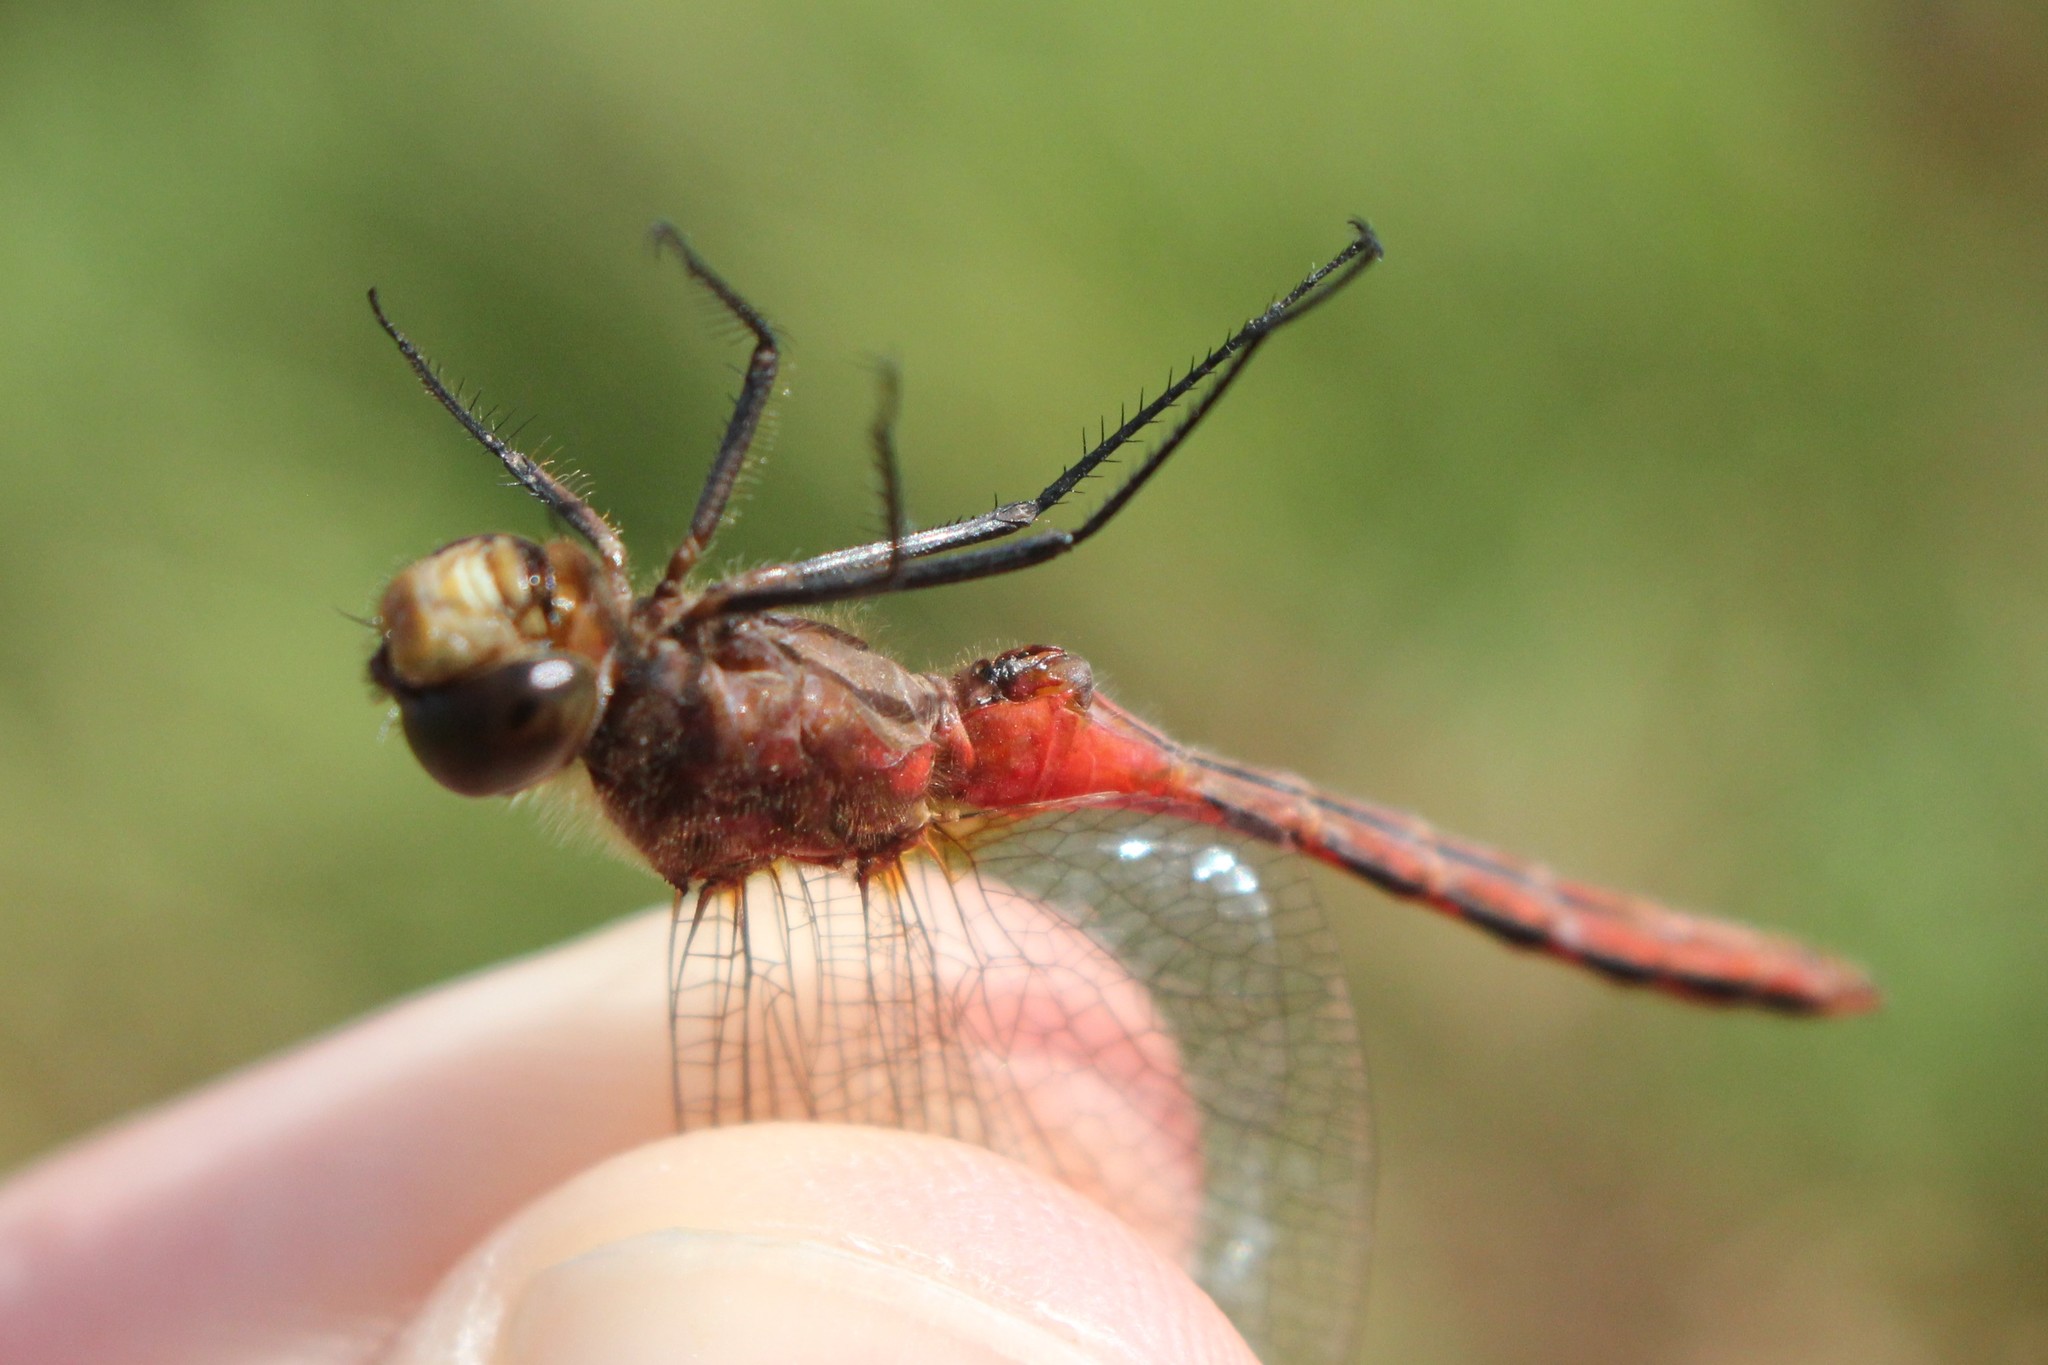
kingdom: Animalia
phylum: Arthropoda
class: Insecta
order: Odonata
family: Libellulidae
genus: Sympetrum
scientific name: Sympetrum
